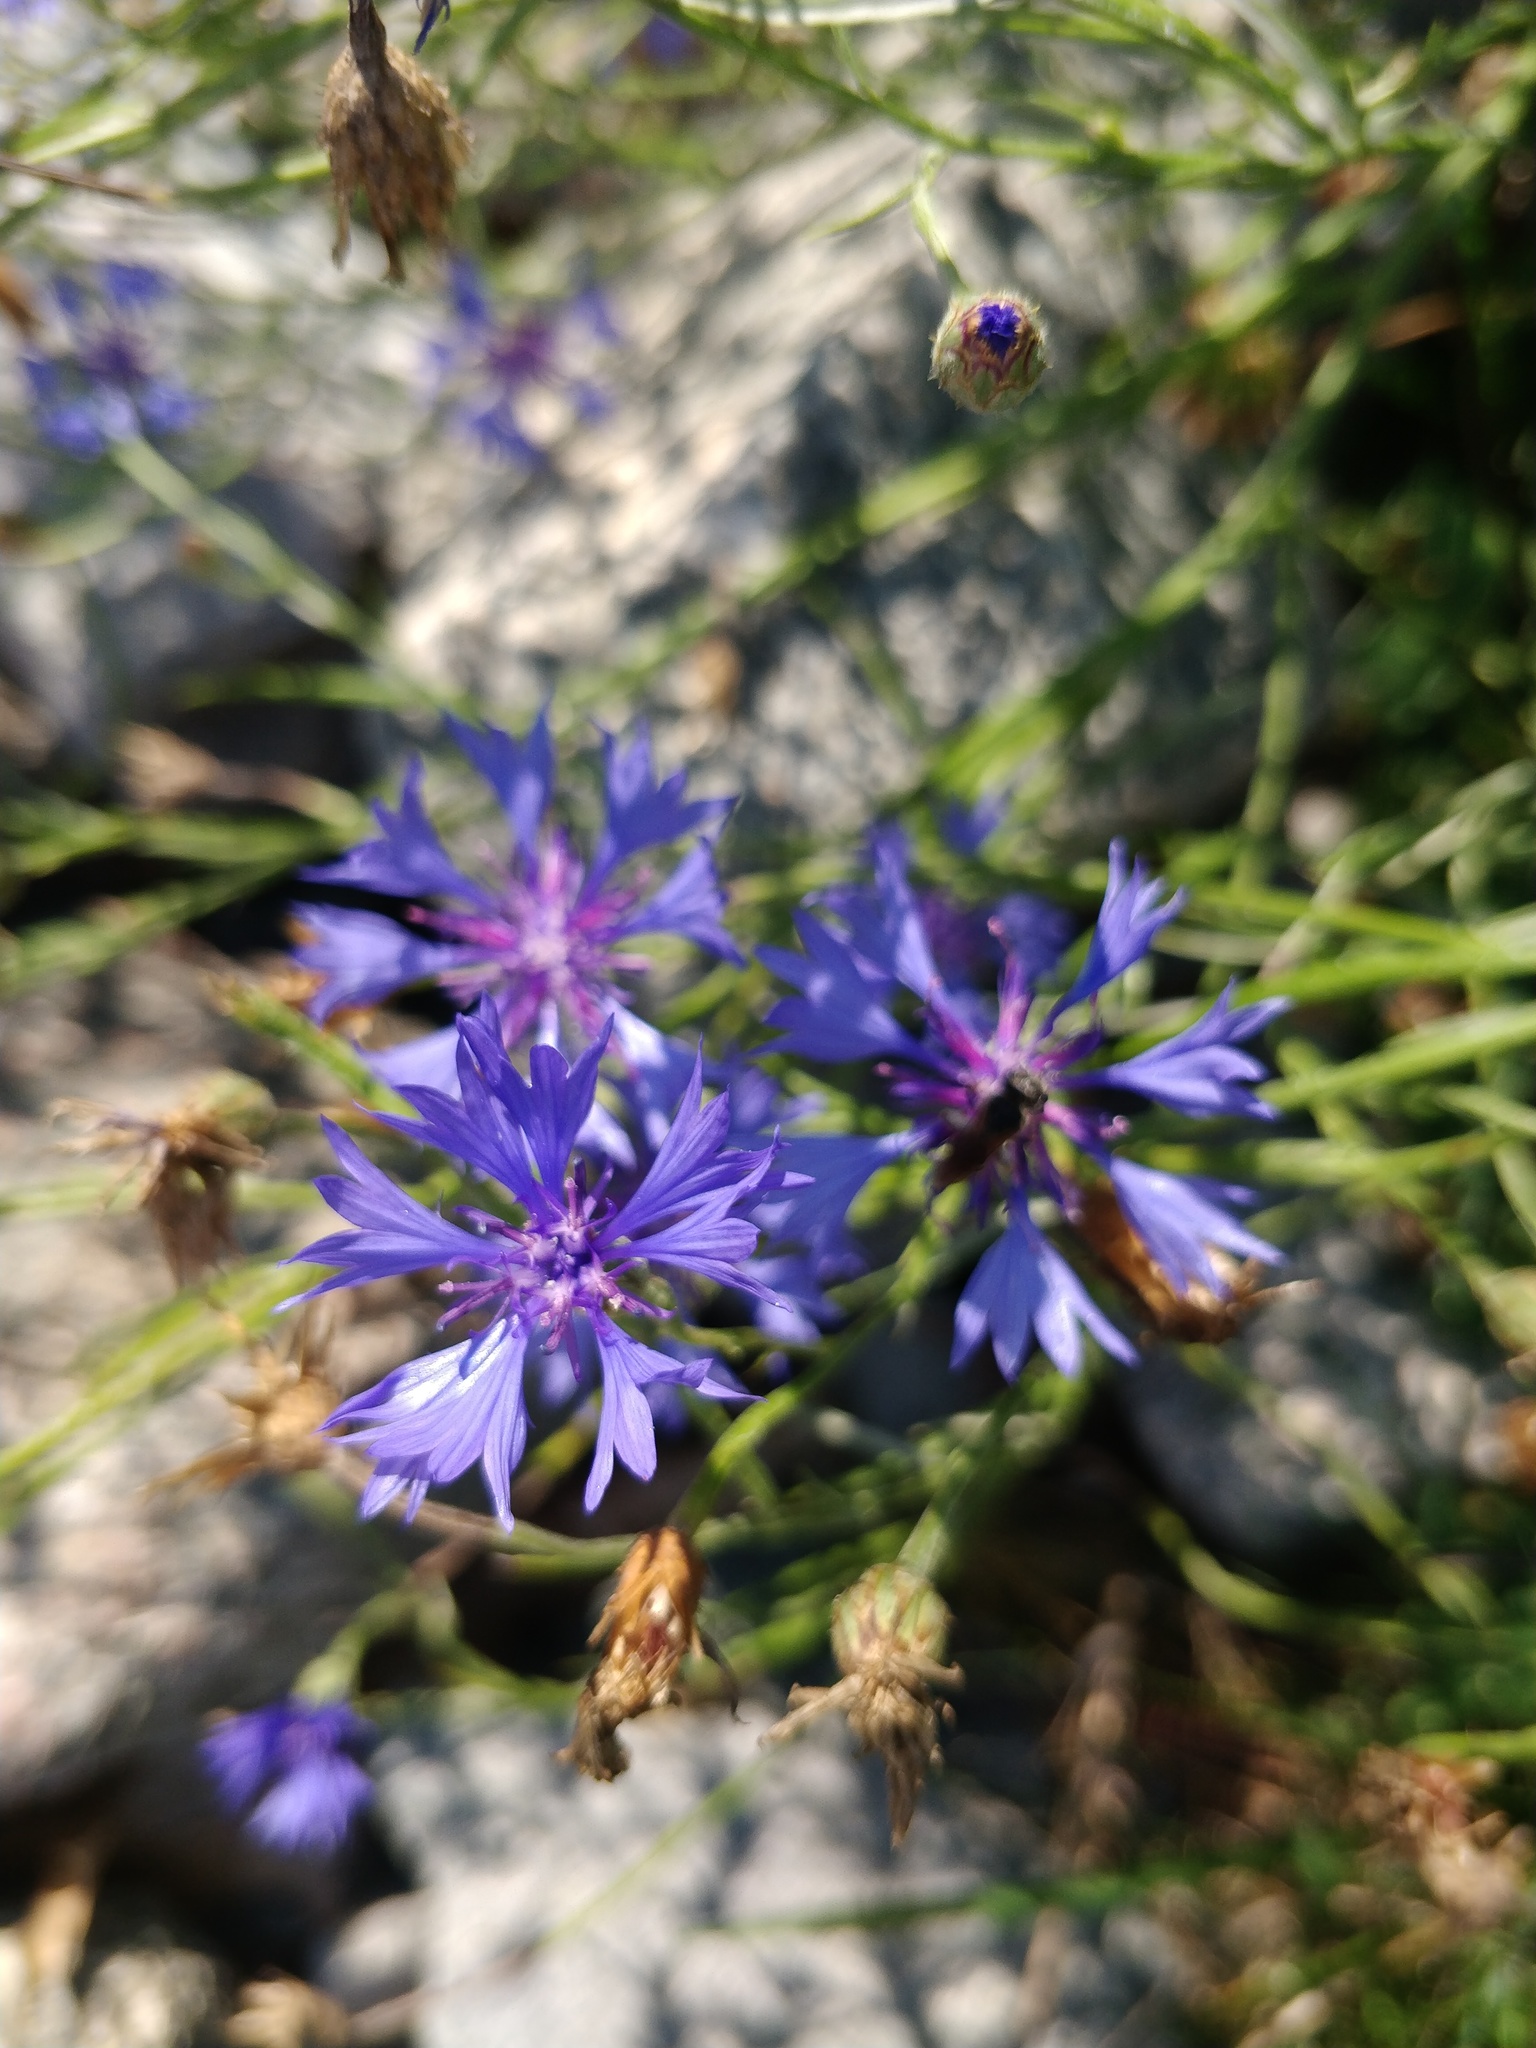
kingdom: Plantae
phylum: Tracheophyta
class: Magnoliopsida
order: Asterales
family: Asteraceae
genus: Centaurea
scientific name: Centaurea cyanus
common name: Cornflower
